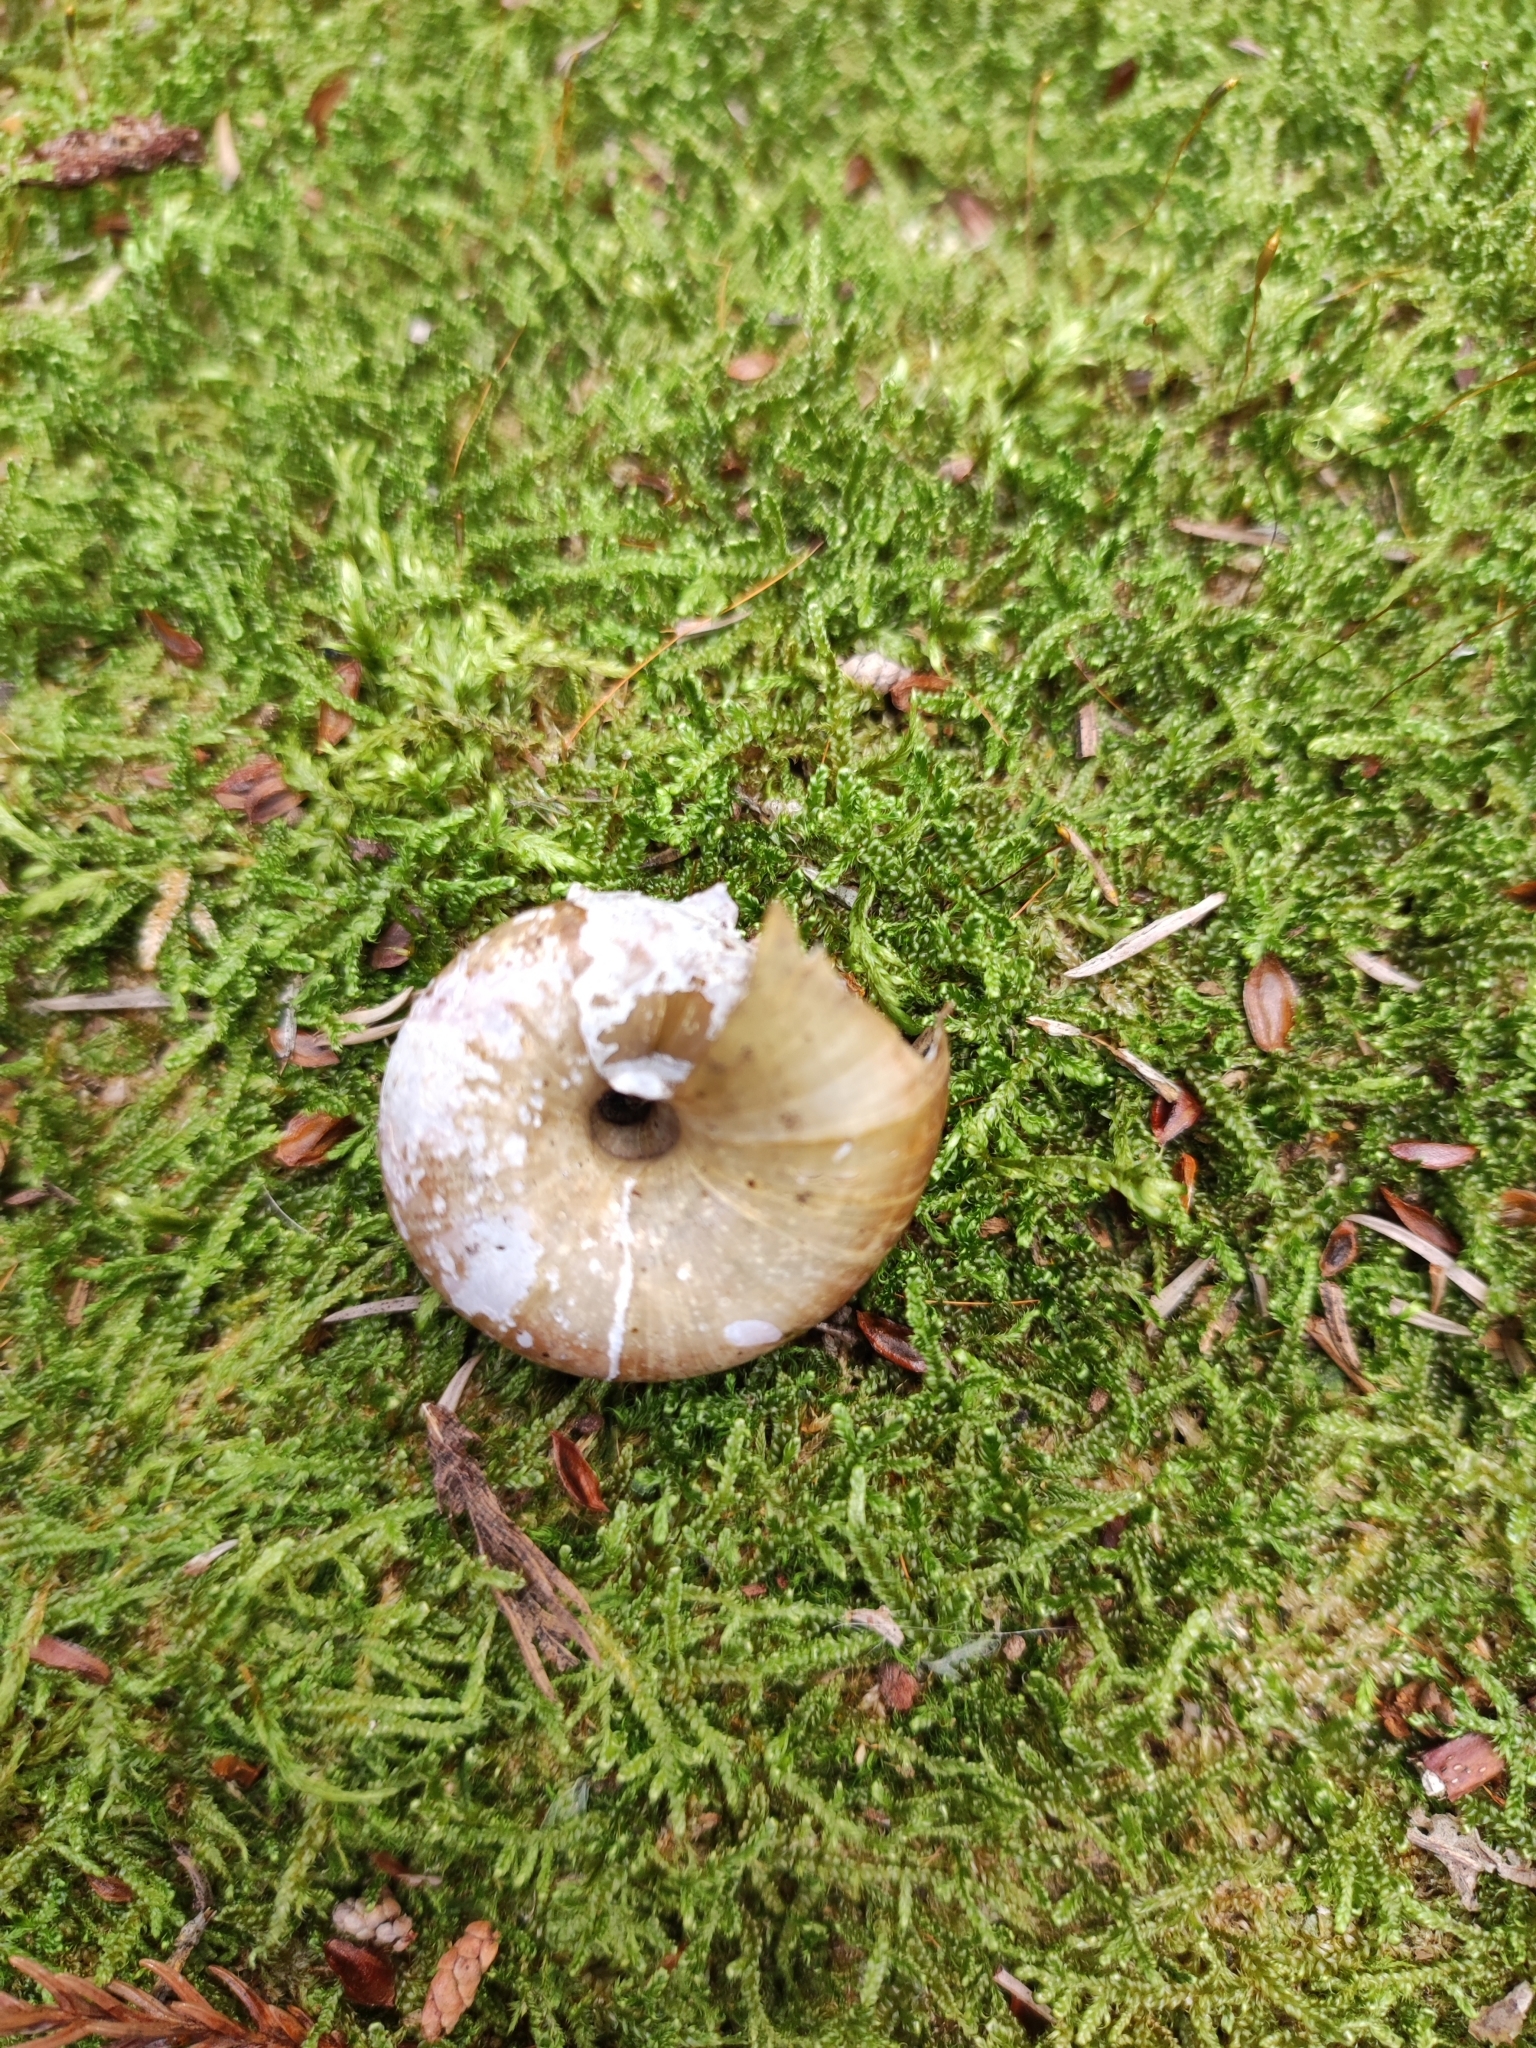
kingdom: Animalia
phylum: Mollusca
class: Gastropoda
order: Stylommatophora
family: Oxychilidae
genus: Oxychilus
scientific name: Oxychilus mingrelicus
